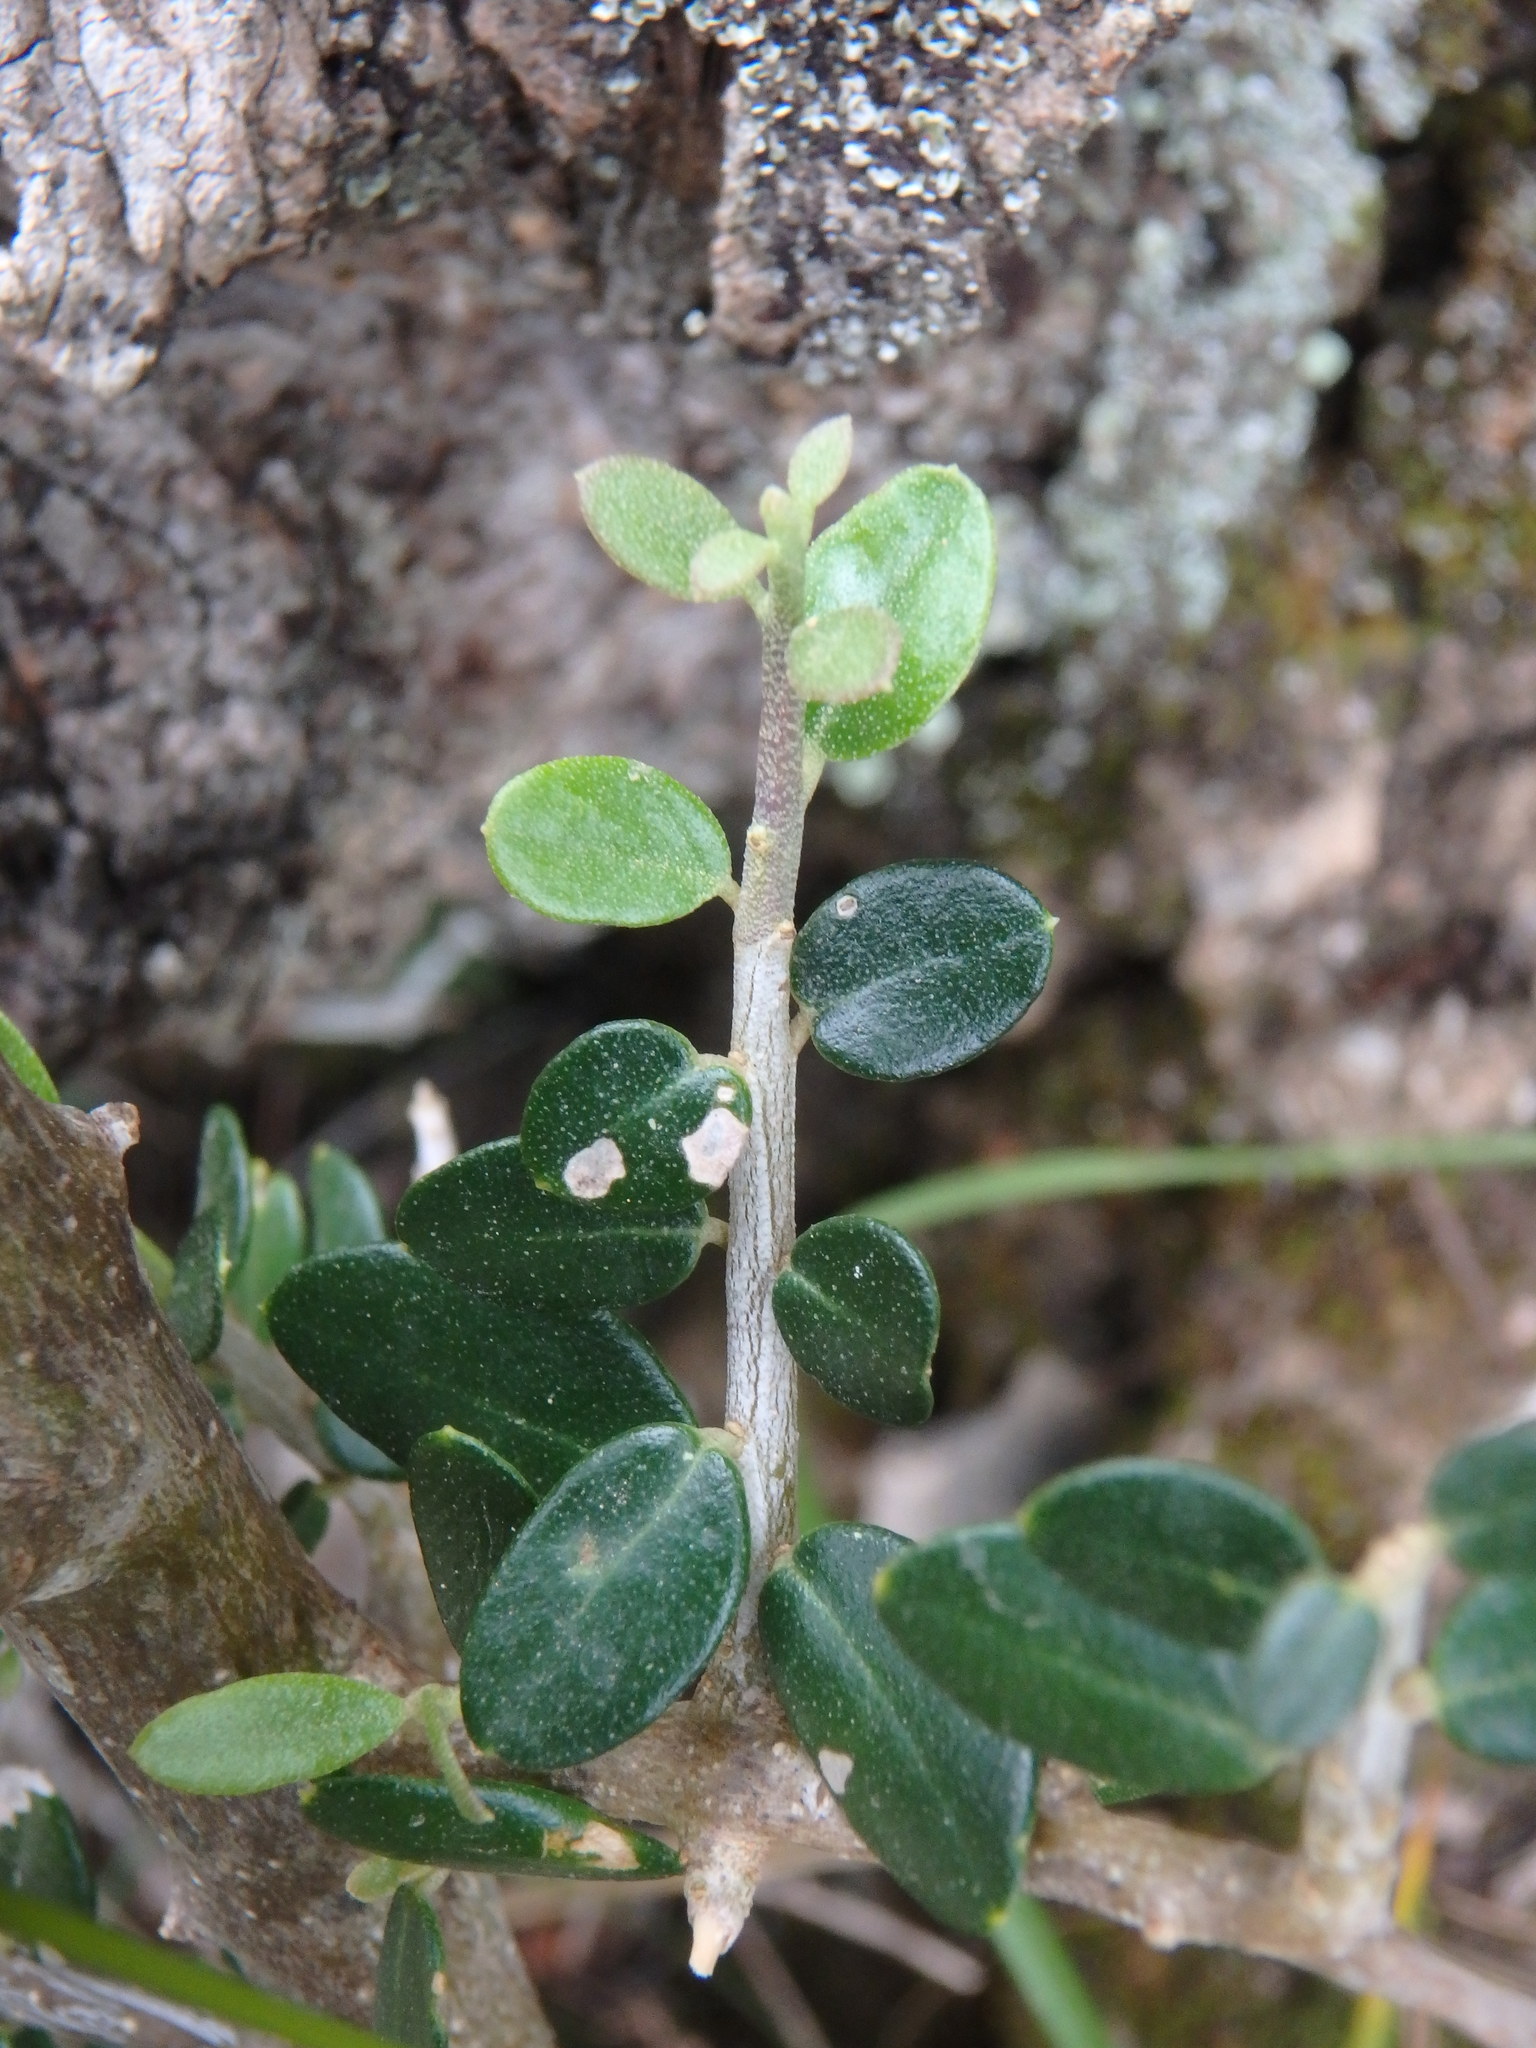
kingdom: Plantae
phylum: Tracheophyta
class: Magnoliopsida
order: Lamiales
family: Oleaceae
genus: Olea
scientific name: Olea europaea
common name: Olive
